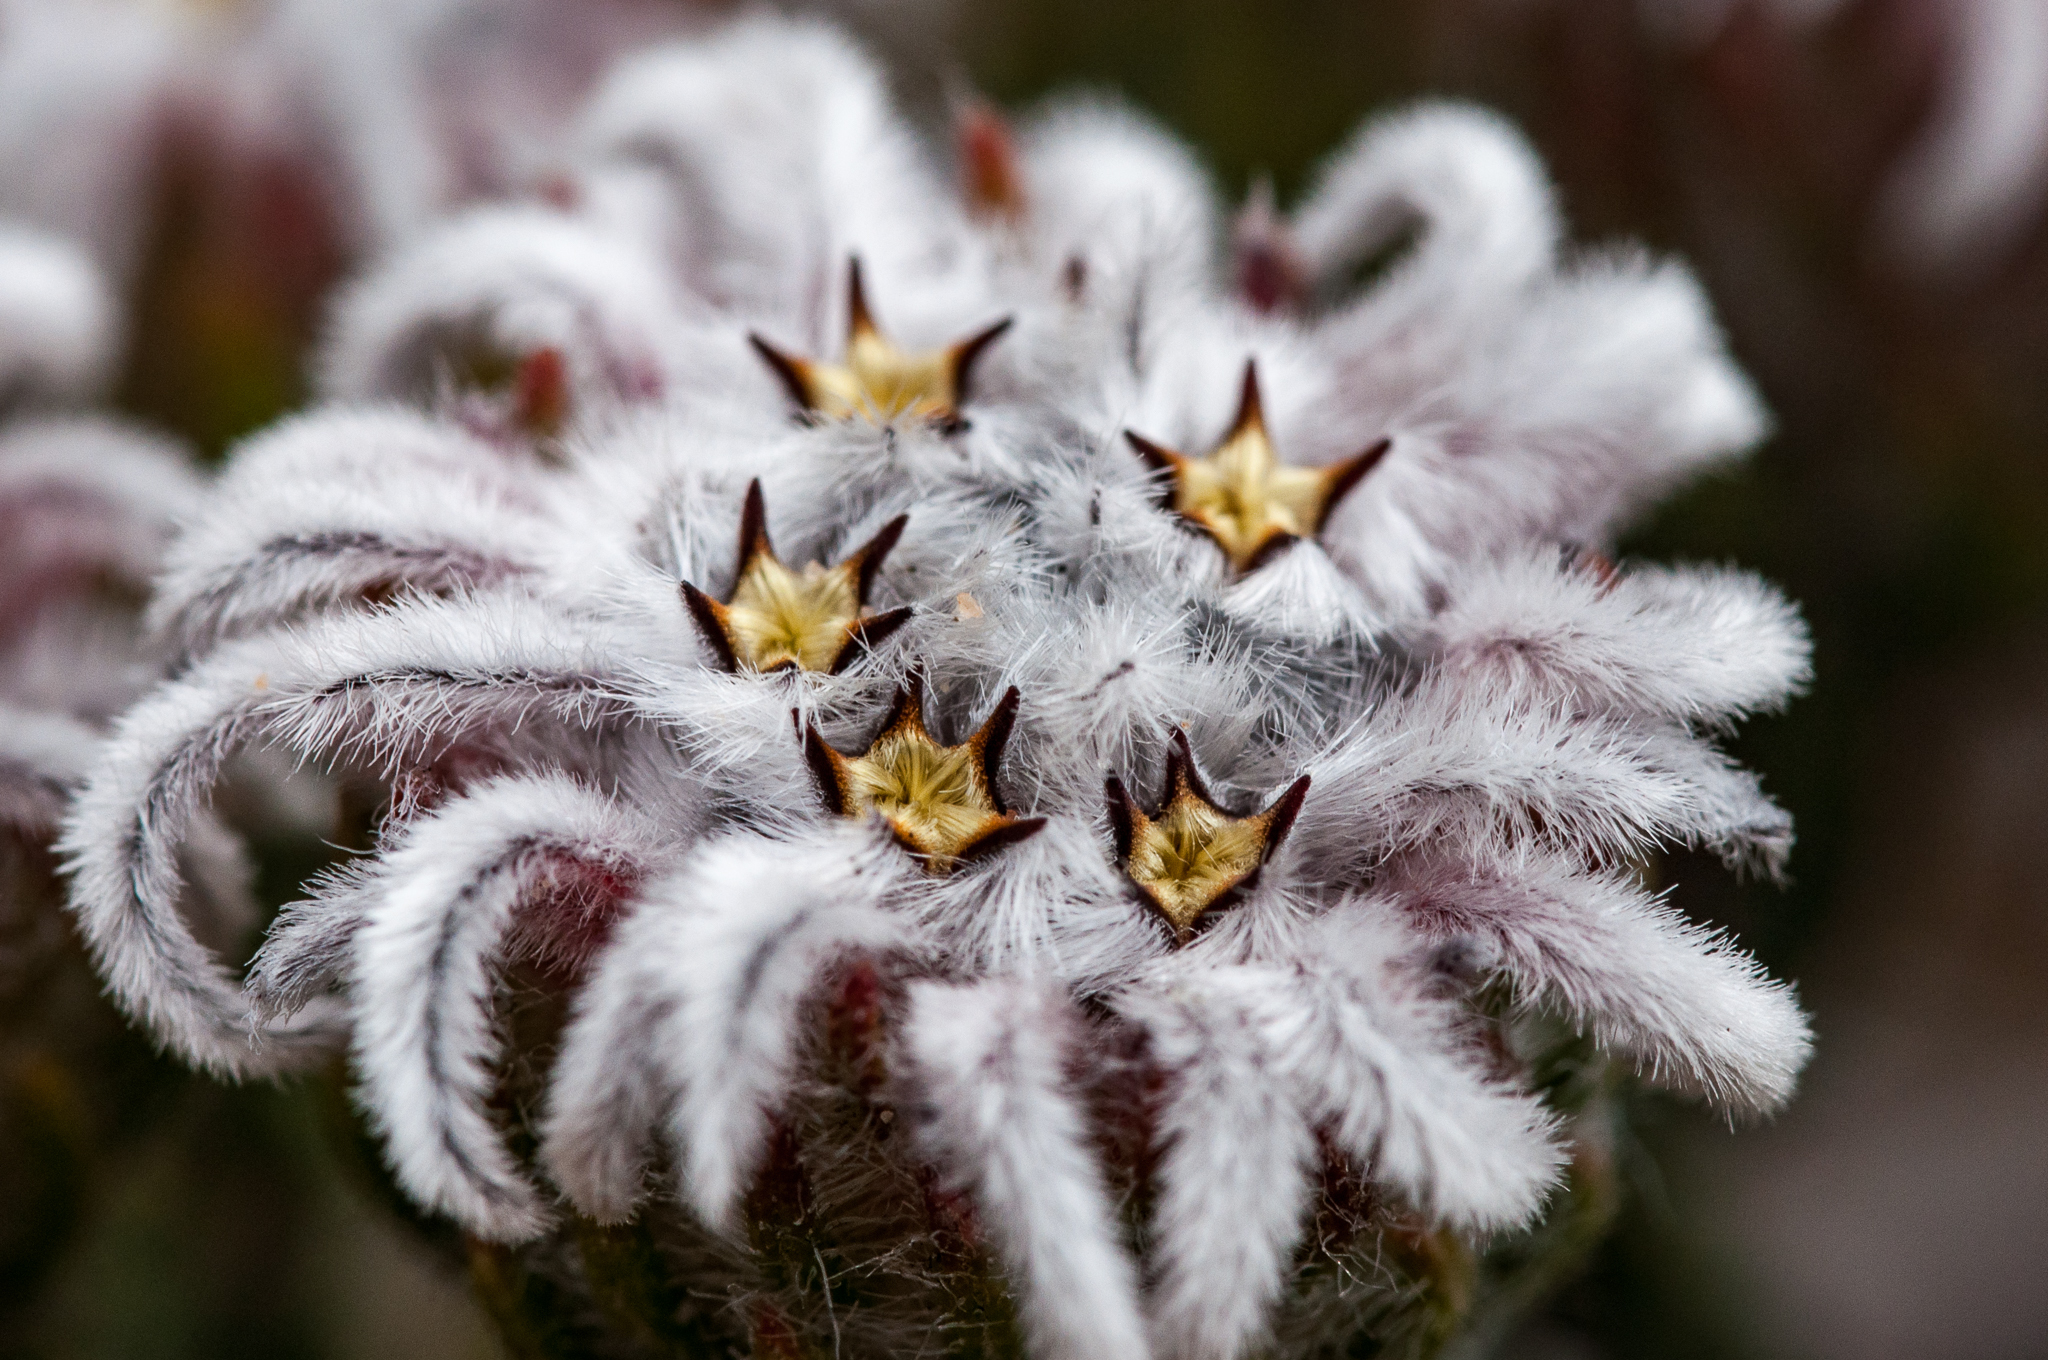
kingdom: Plantae
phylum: Tracheophyta
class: Magnoliopsida
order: Rosales
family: Rhamnaceae
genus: Phylica
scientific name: Phylica plumigera
